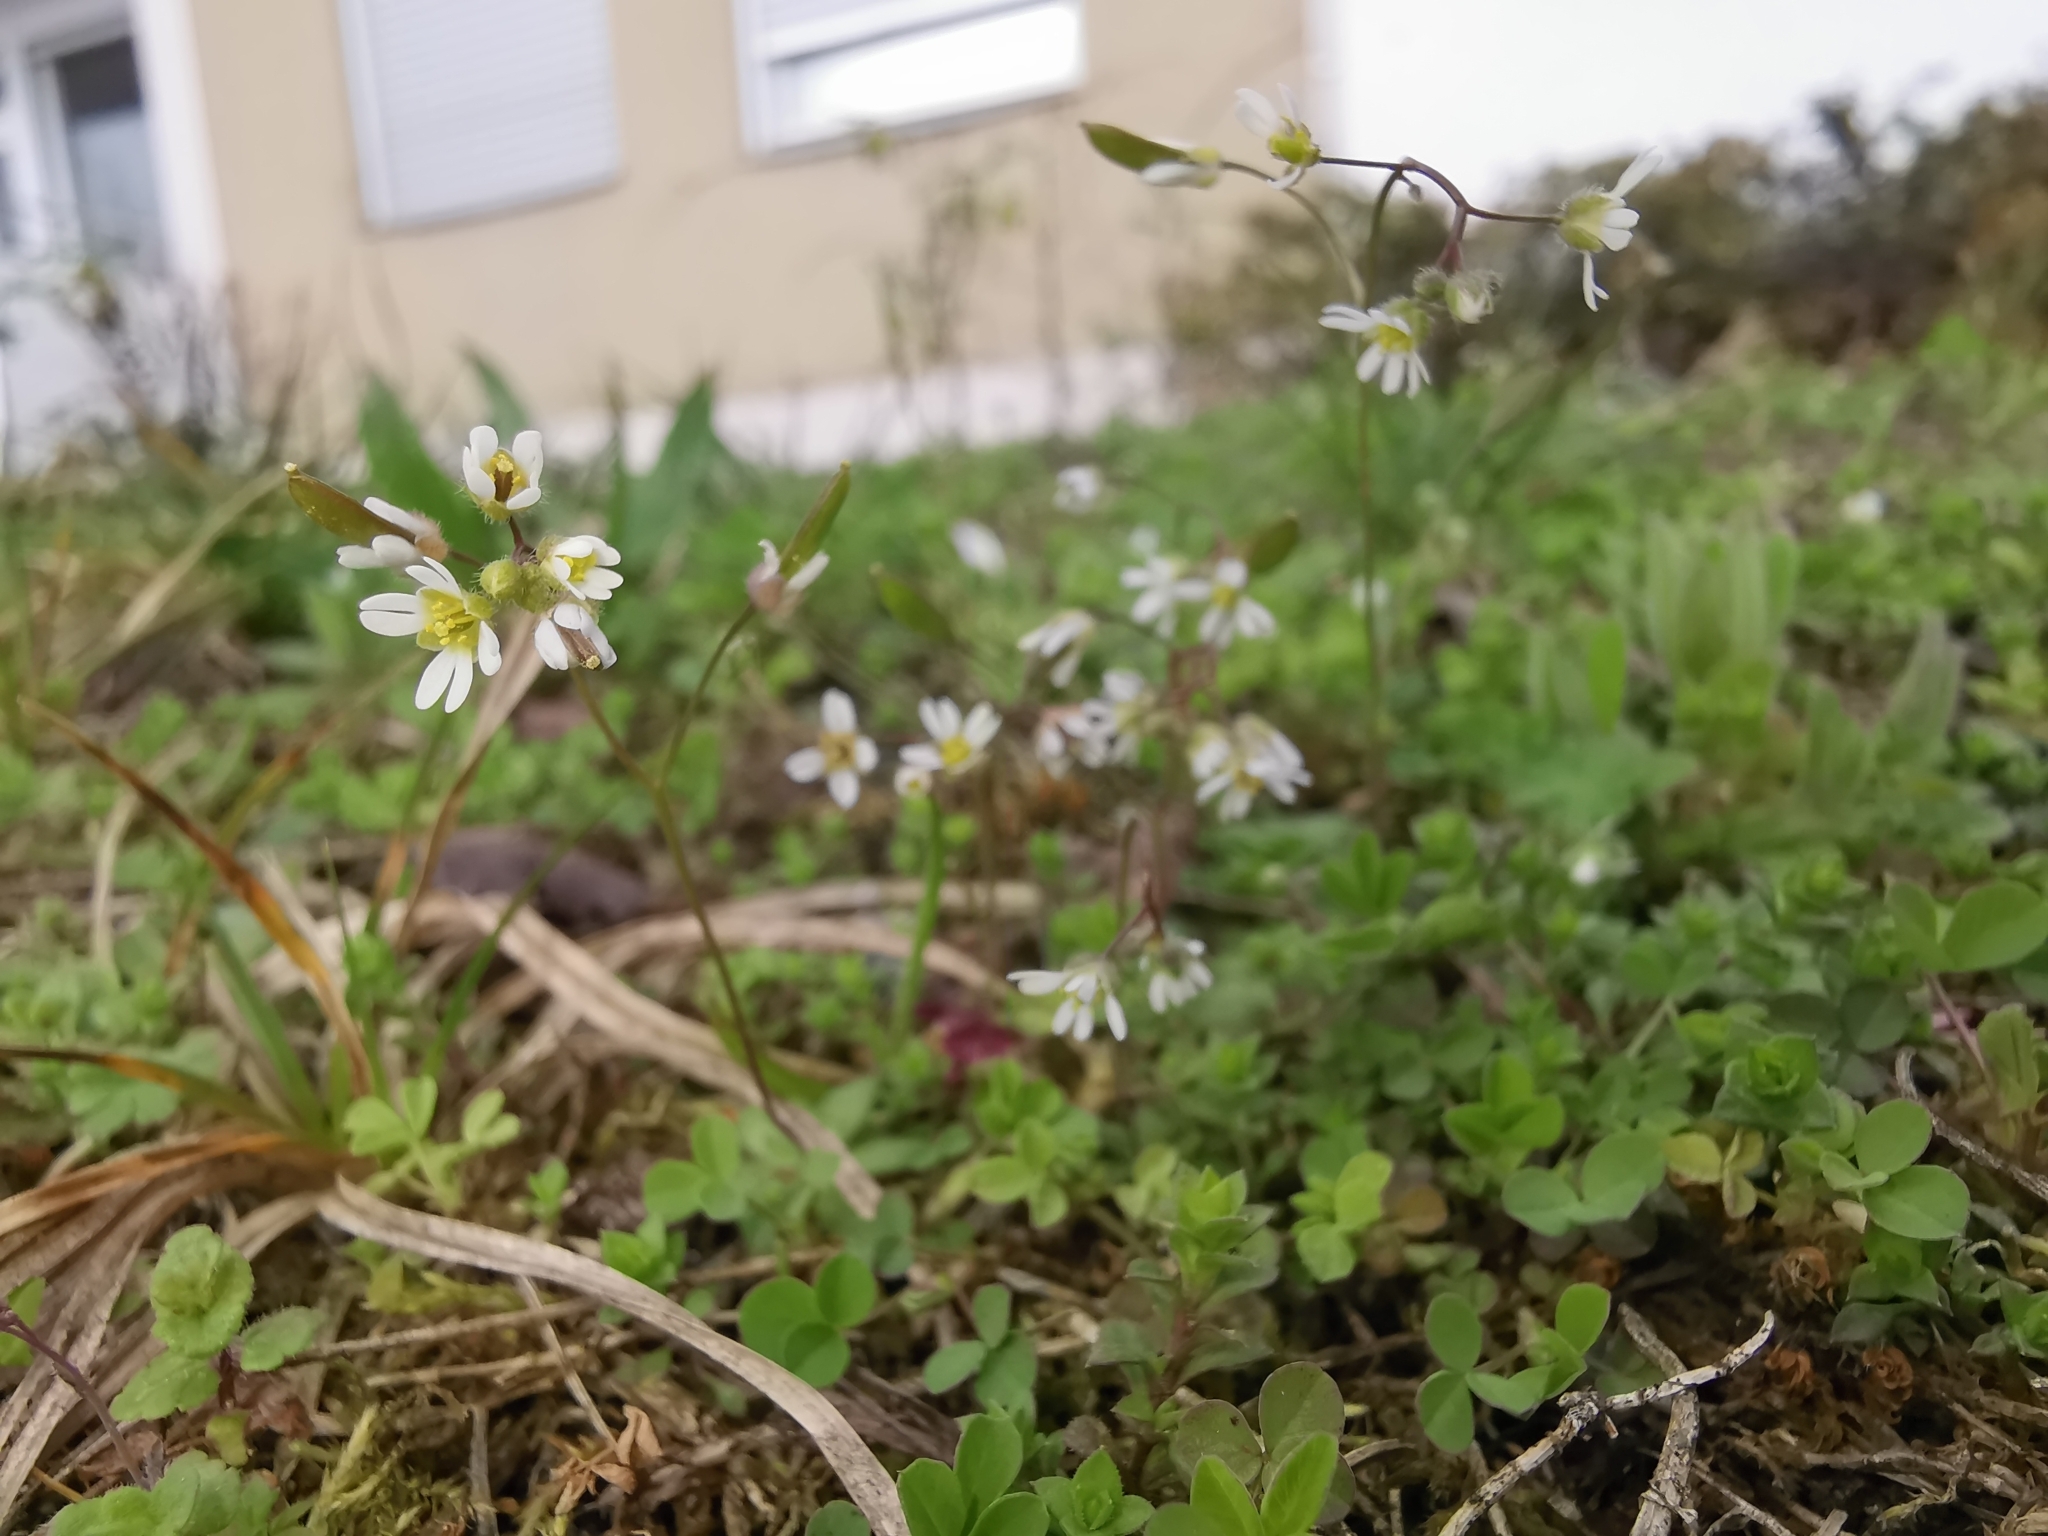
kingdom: Plantae
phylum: Tracheophyta
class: Magnoliopsida
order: Brassicales
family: Brassicaceae
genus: Draba
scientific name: Draba verna
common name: Spring draba
